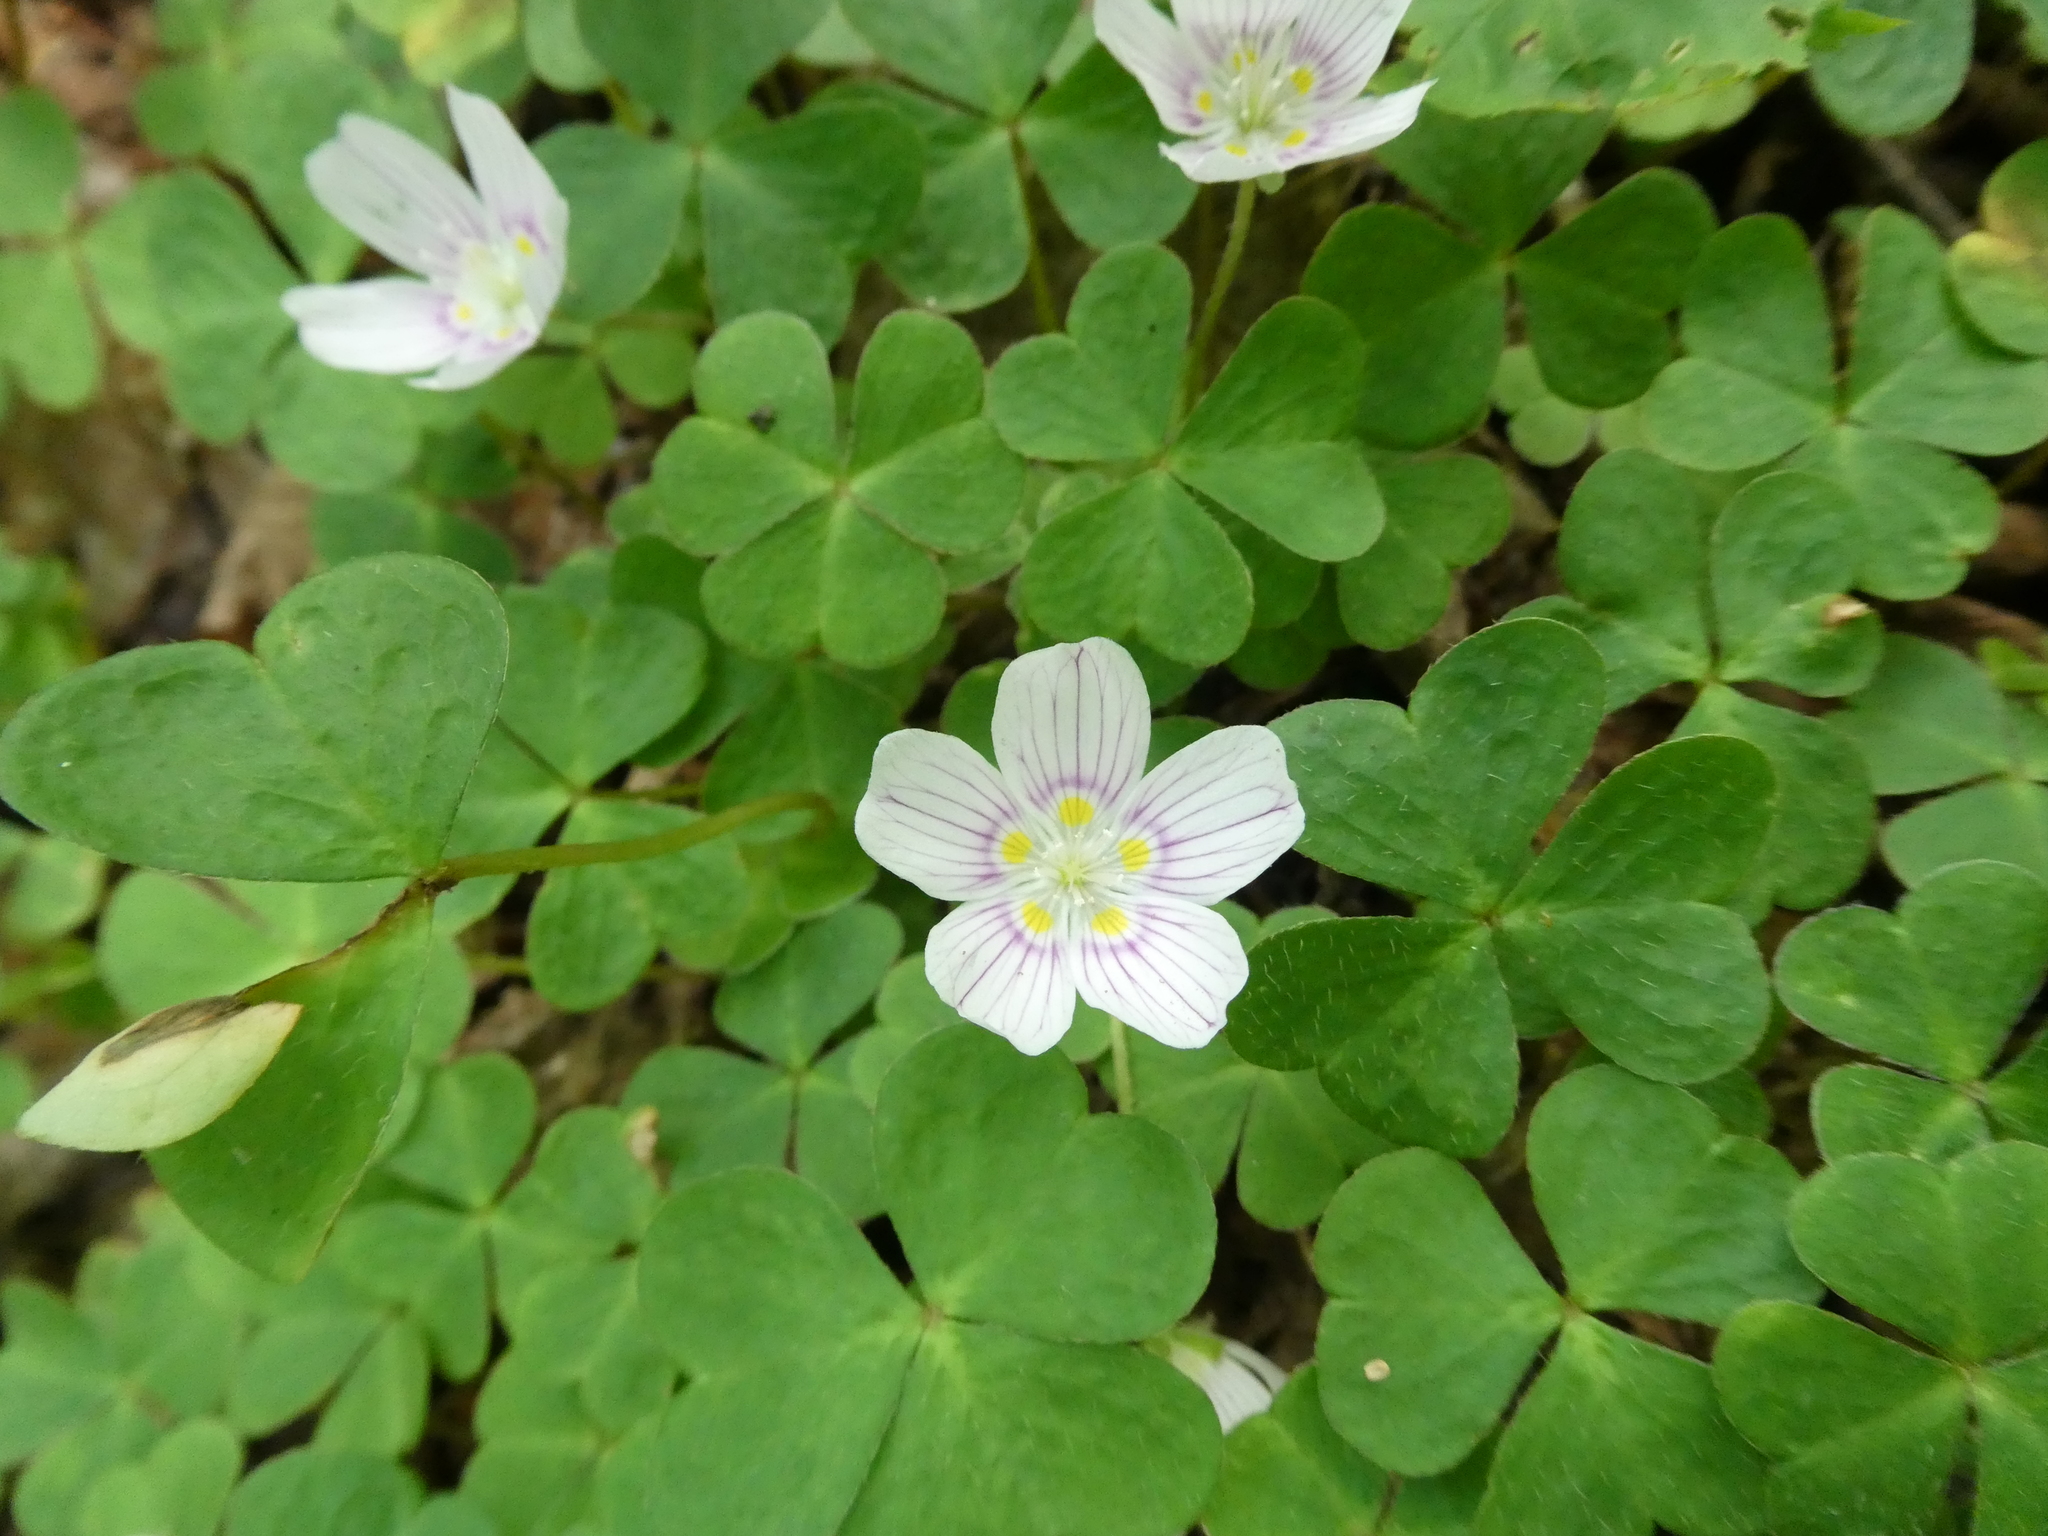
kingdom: Plantae
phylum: Tracheophyta
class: Magnoliopsida
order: Oxalidales
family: Oxalidaceae
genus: Oxalis
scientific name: Oxalis montana
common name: American wood-sorrel
